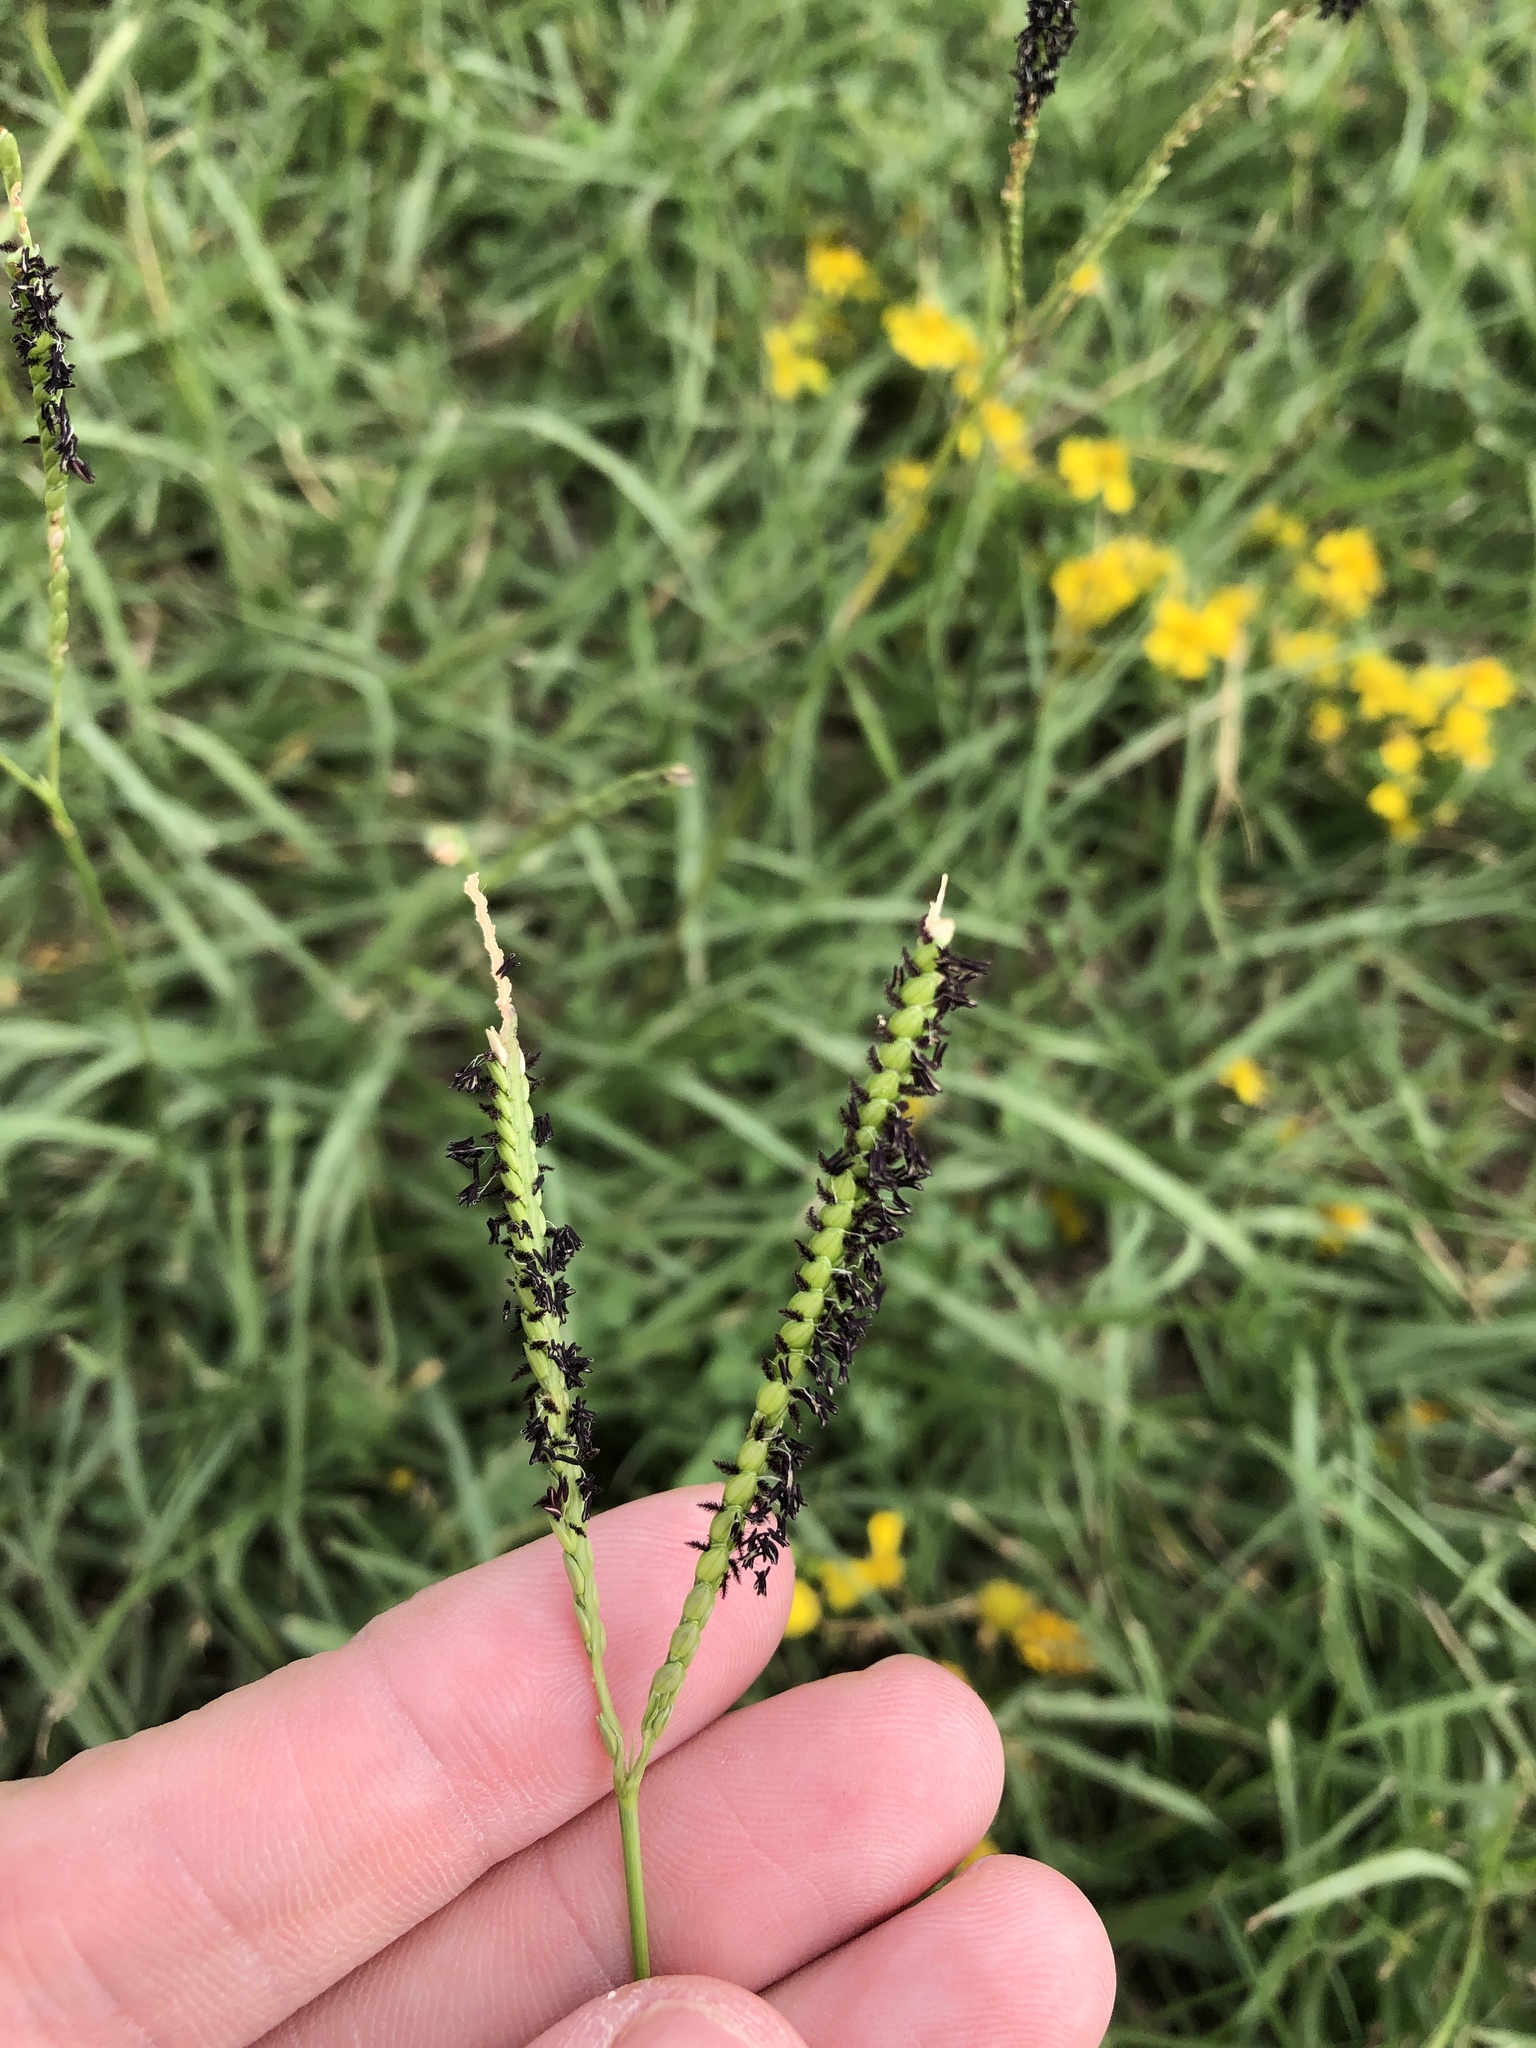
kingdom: Plantae
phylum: Tracheophyta
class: Liliopsida
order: Poales
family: Poaceae
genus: Paspalum
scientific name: Paspalum notatum
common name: Bahiagrass
